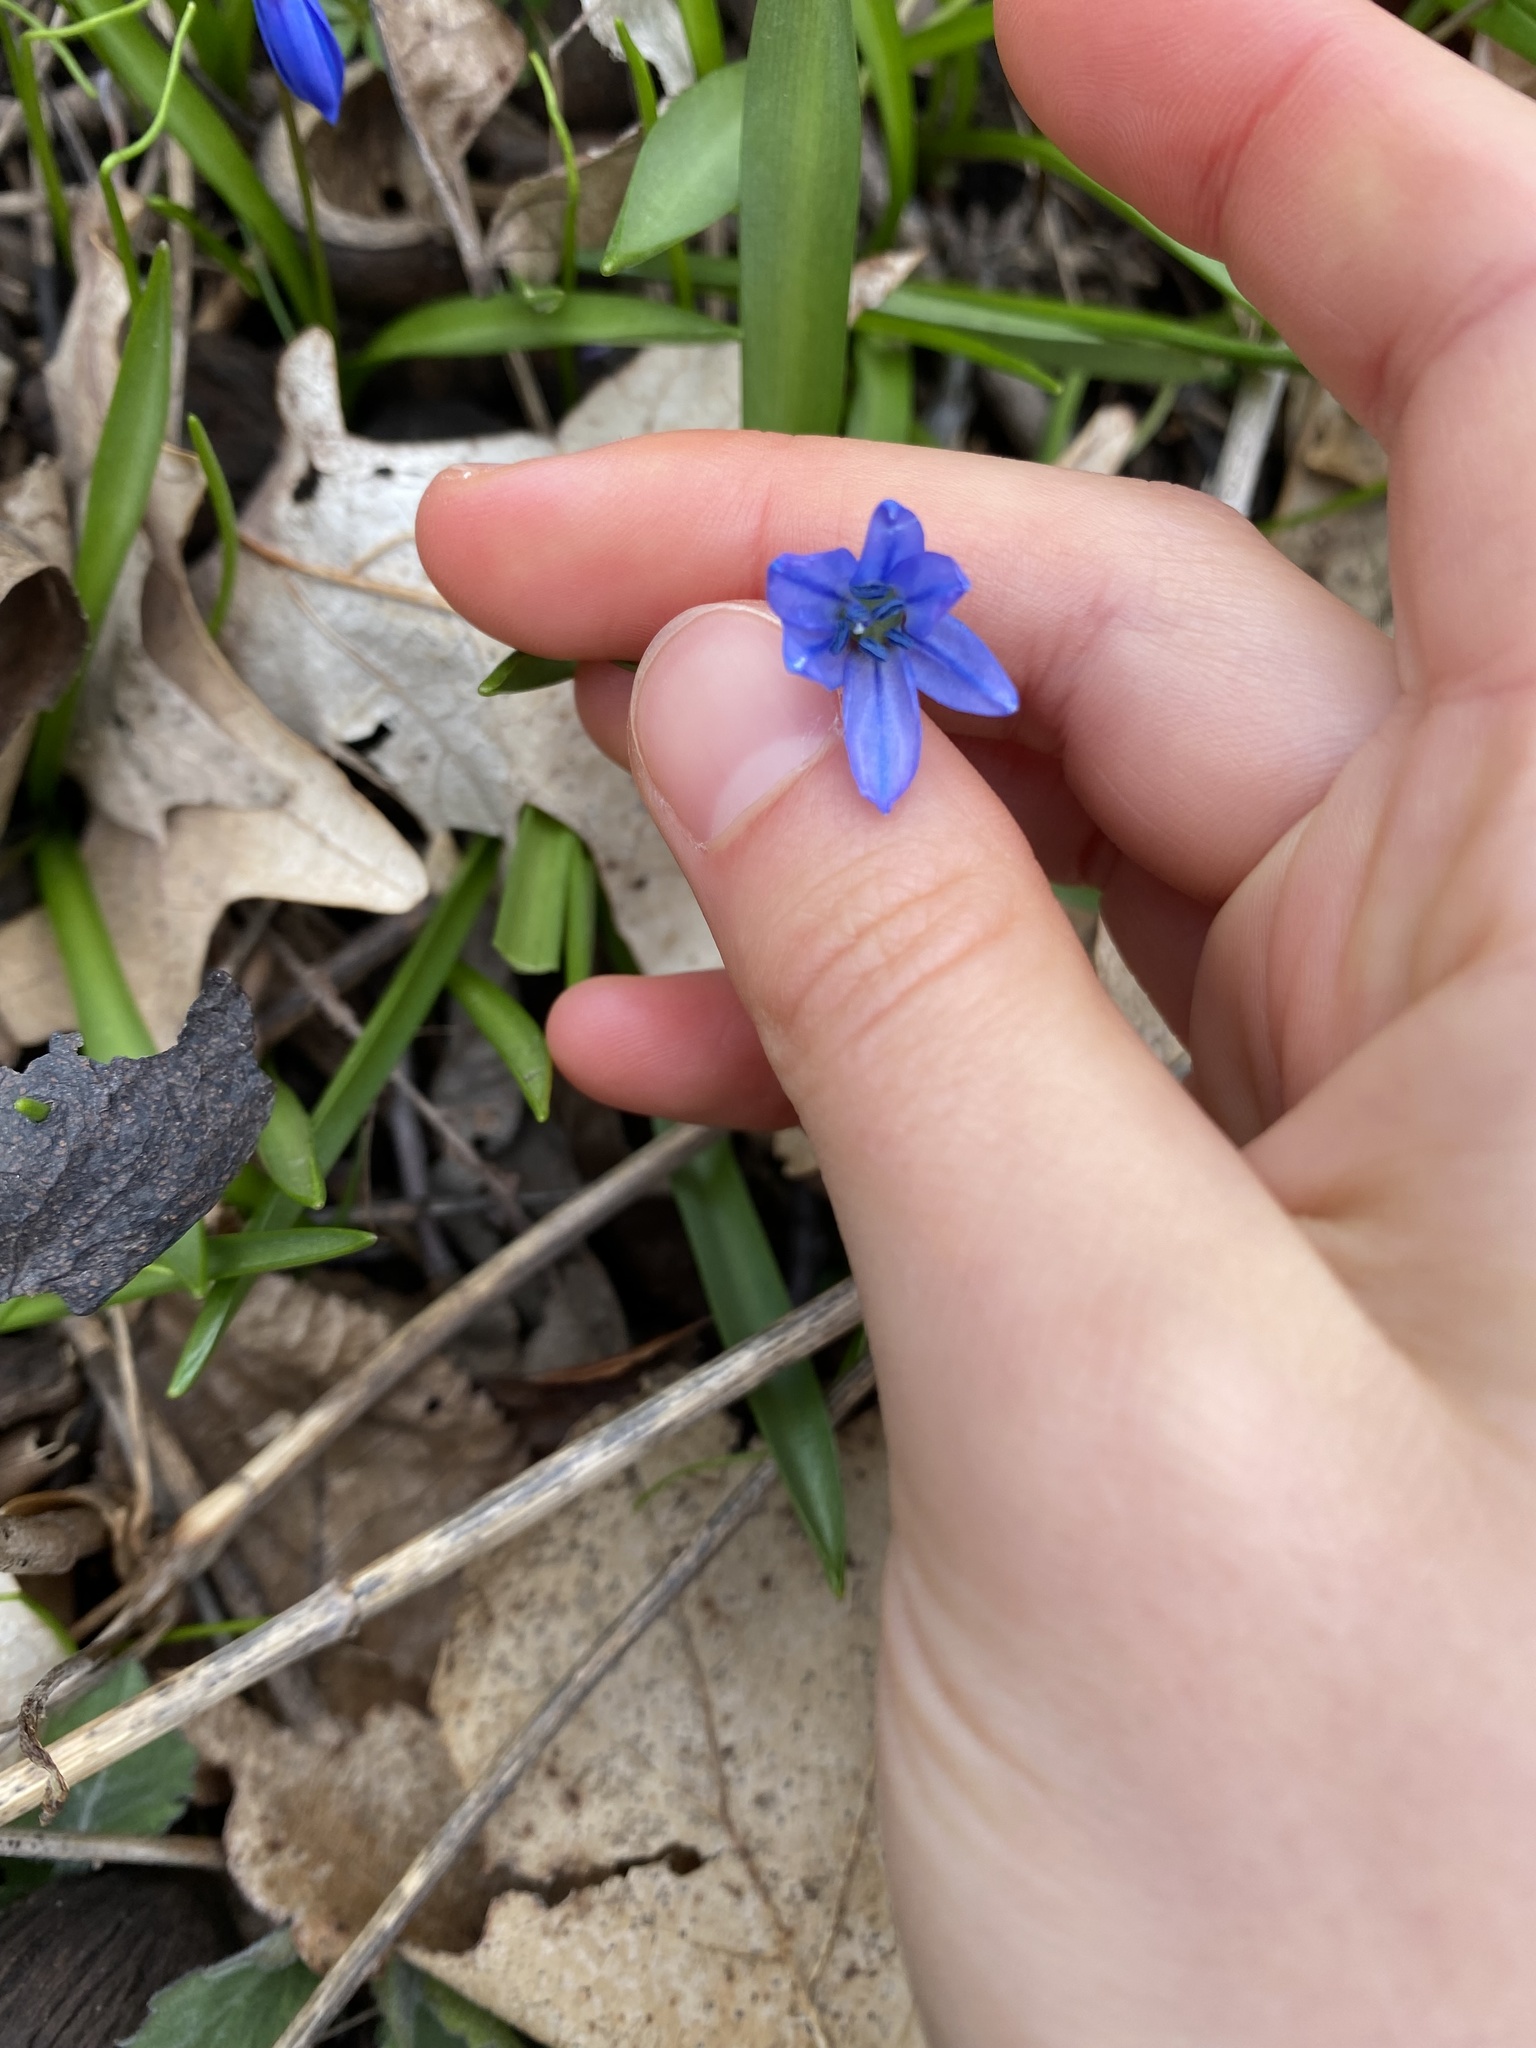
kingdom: Plantae
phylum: Tracheophyta
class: Liliopsida
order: Asparagales
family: Asparagaceae
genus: Scilla
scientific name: Scilla siberica
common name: Siberian squill
